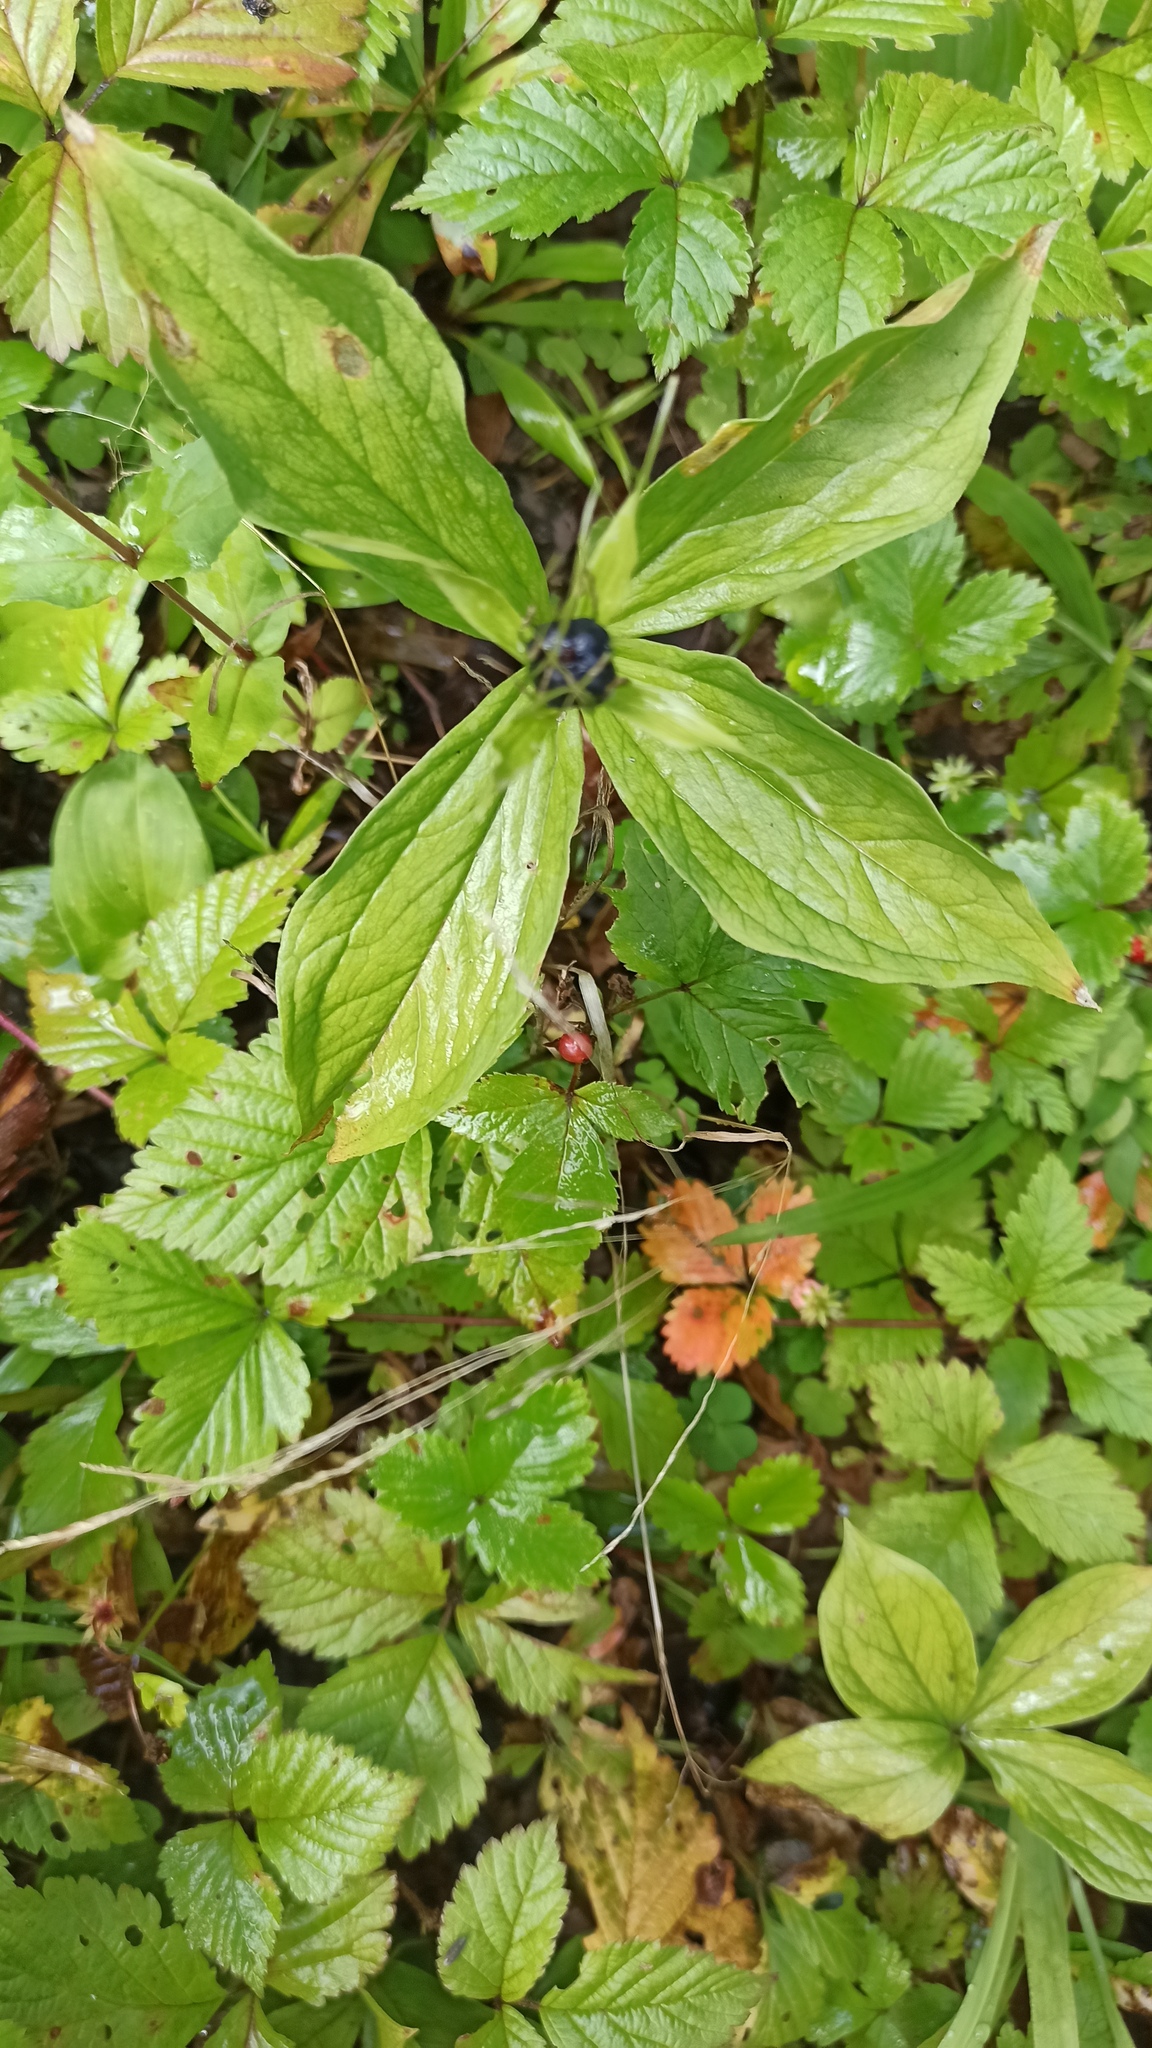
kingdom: Plantae
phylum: Tracheophyta
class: Liliopsida
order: Liliales
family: Melanthiaceae
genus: Paris
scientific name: Paris quadrifolia
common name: Herb-paris
